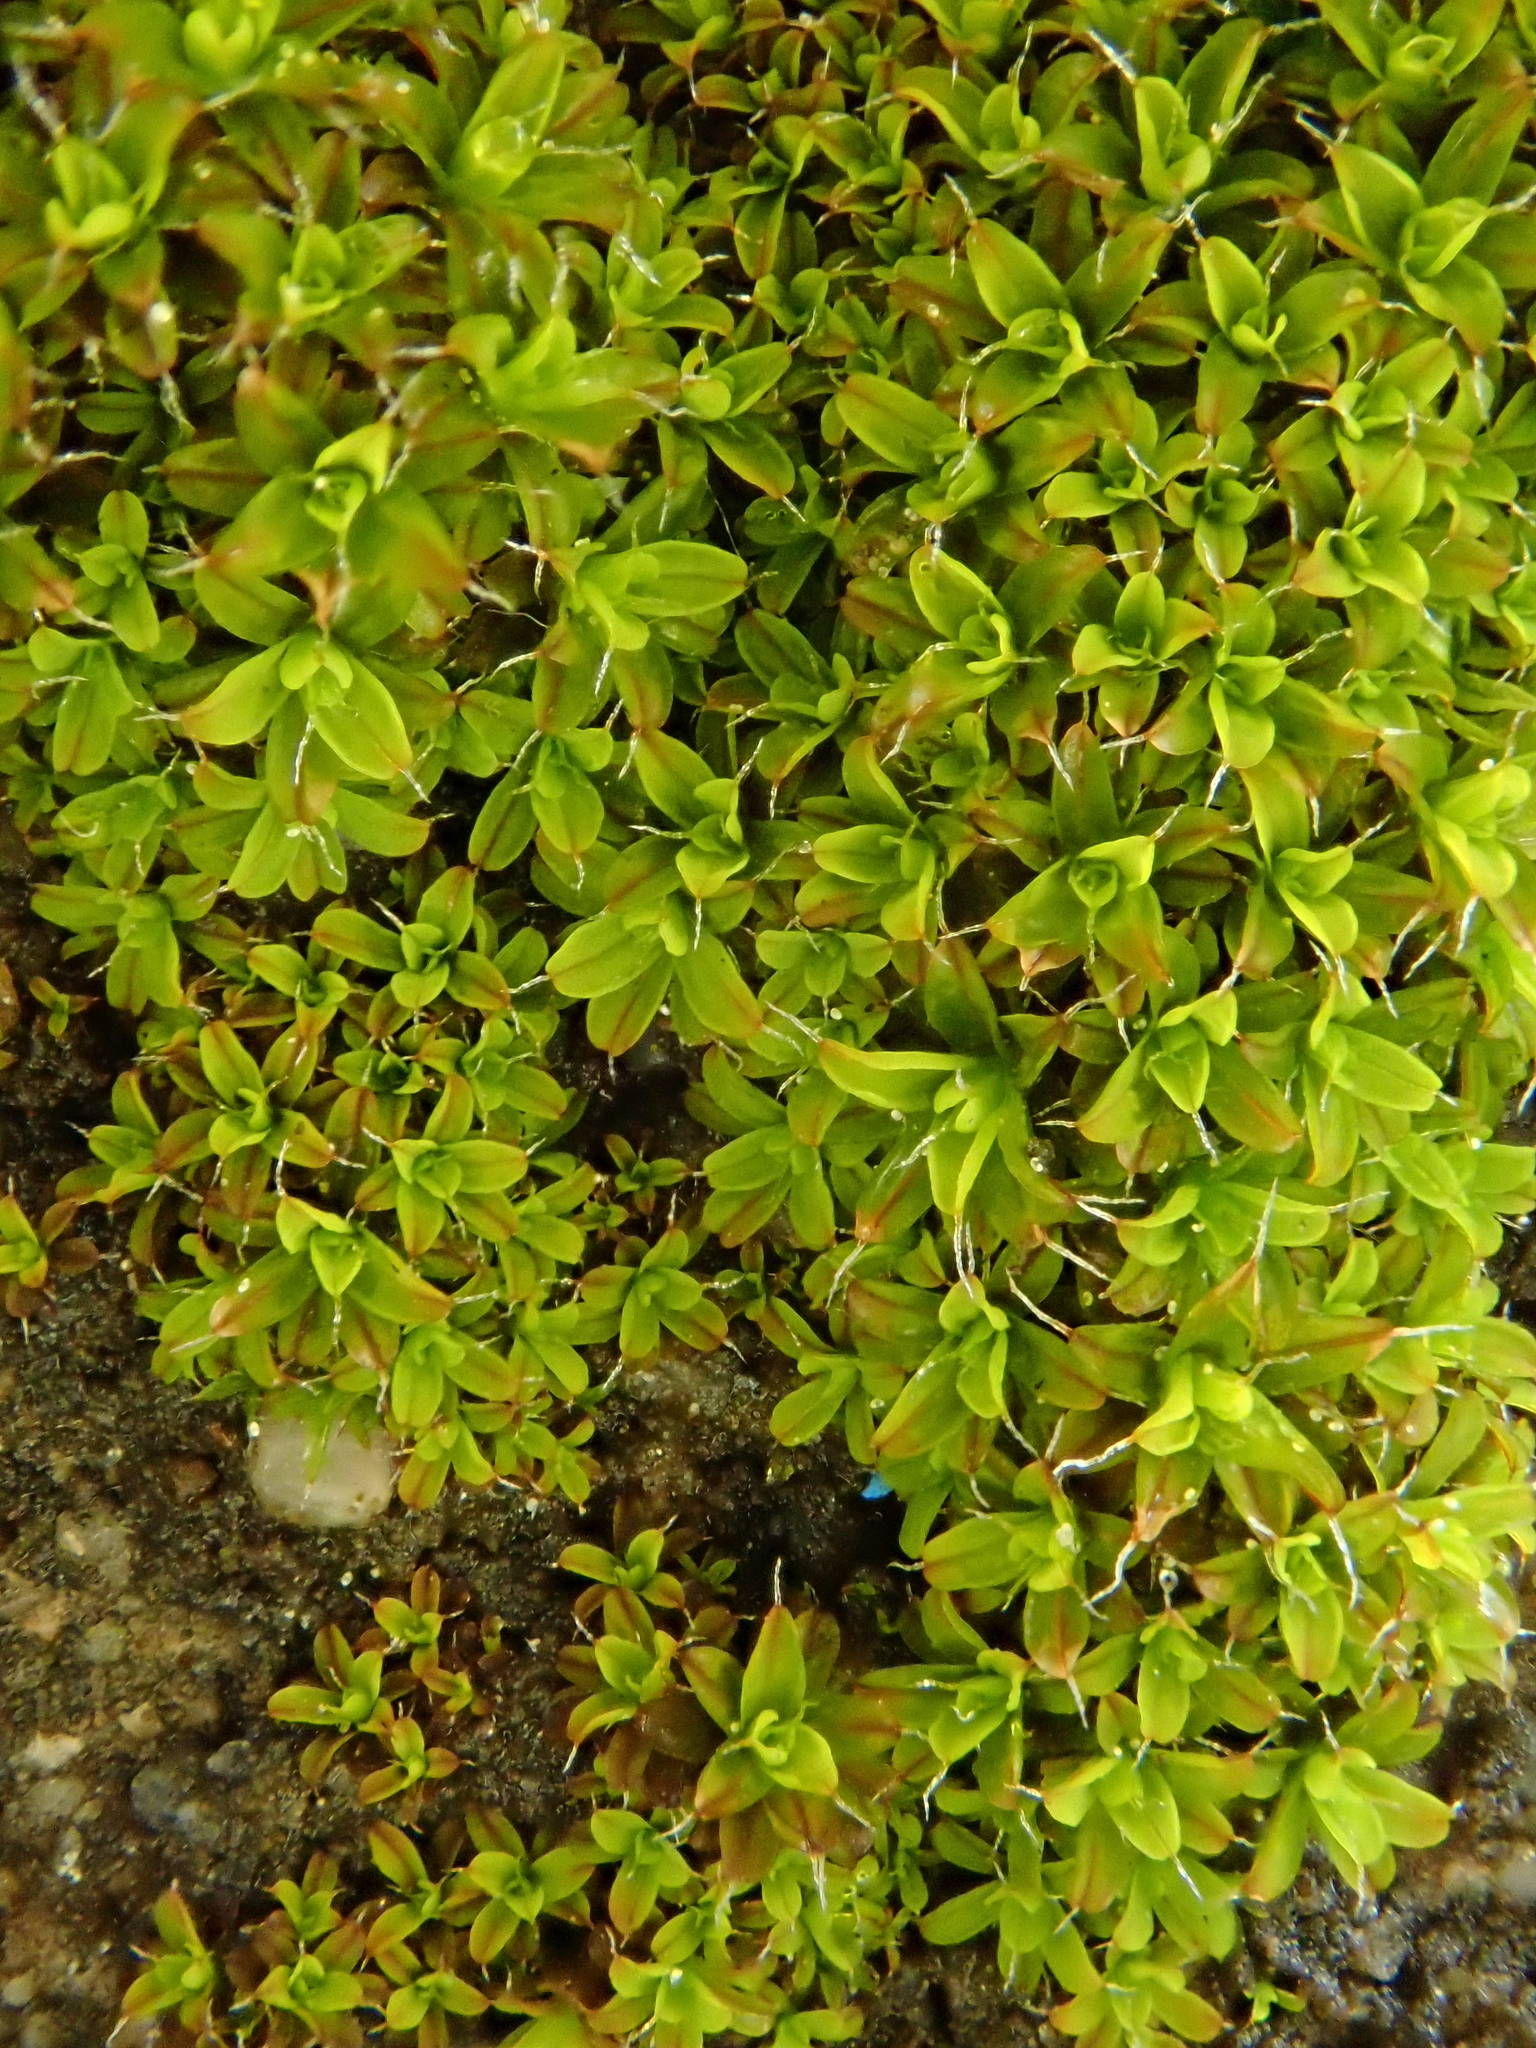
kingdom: Plantae
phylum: Bryophyta
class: Bryopsida
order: Pottiales
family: Pottiaceae
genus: Syntrichia
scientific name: Syntrichia ruralis
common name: Sidewalk screw moss
